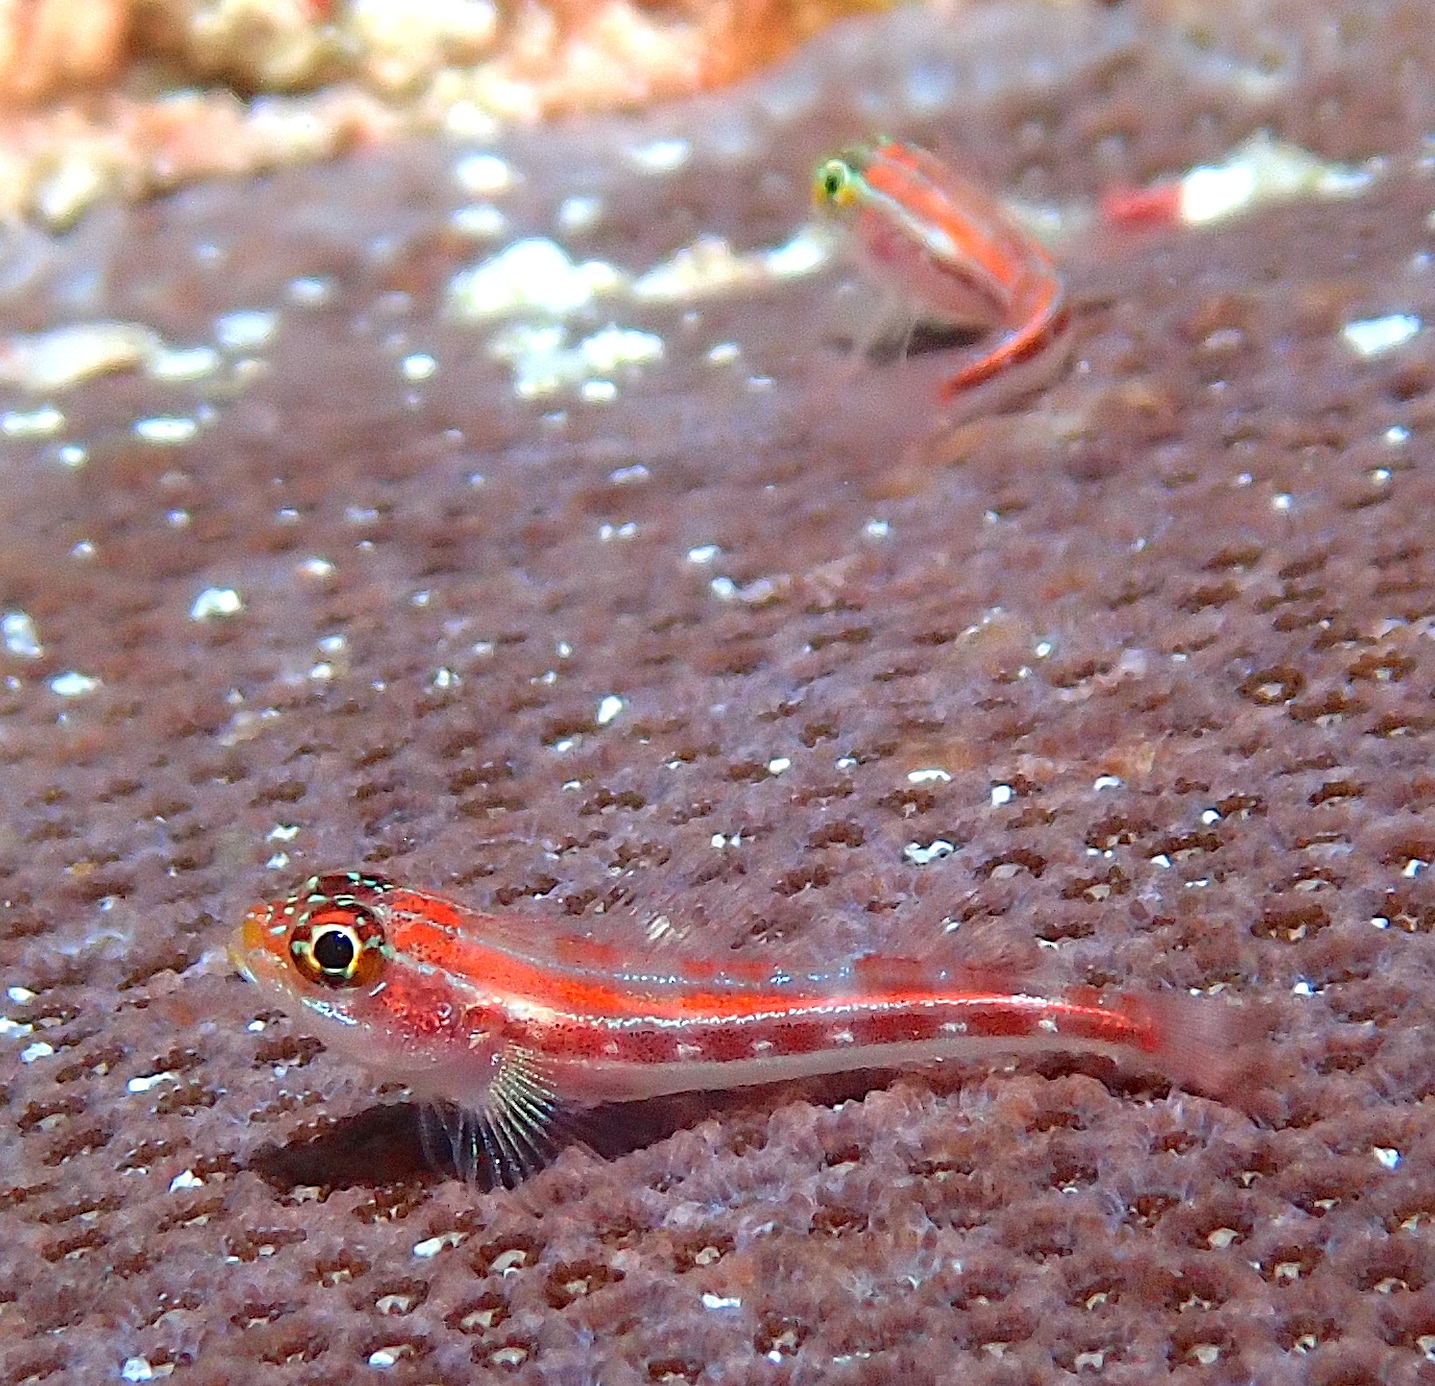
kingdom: Animalia
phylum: Chordata
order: Perciformes
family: Tripterygiidae
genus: Helcogramma
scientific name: Helcogramma striata
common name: Striped threefin
